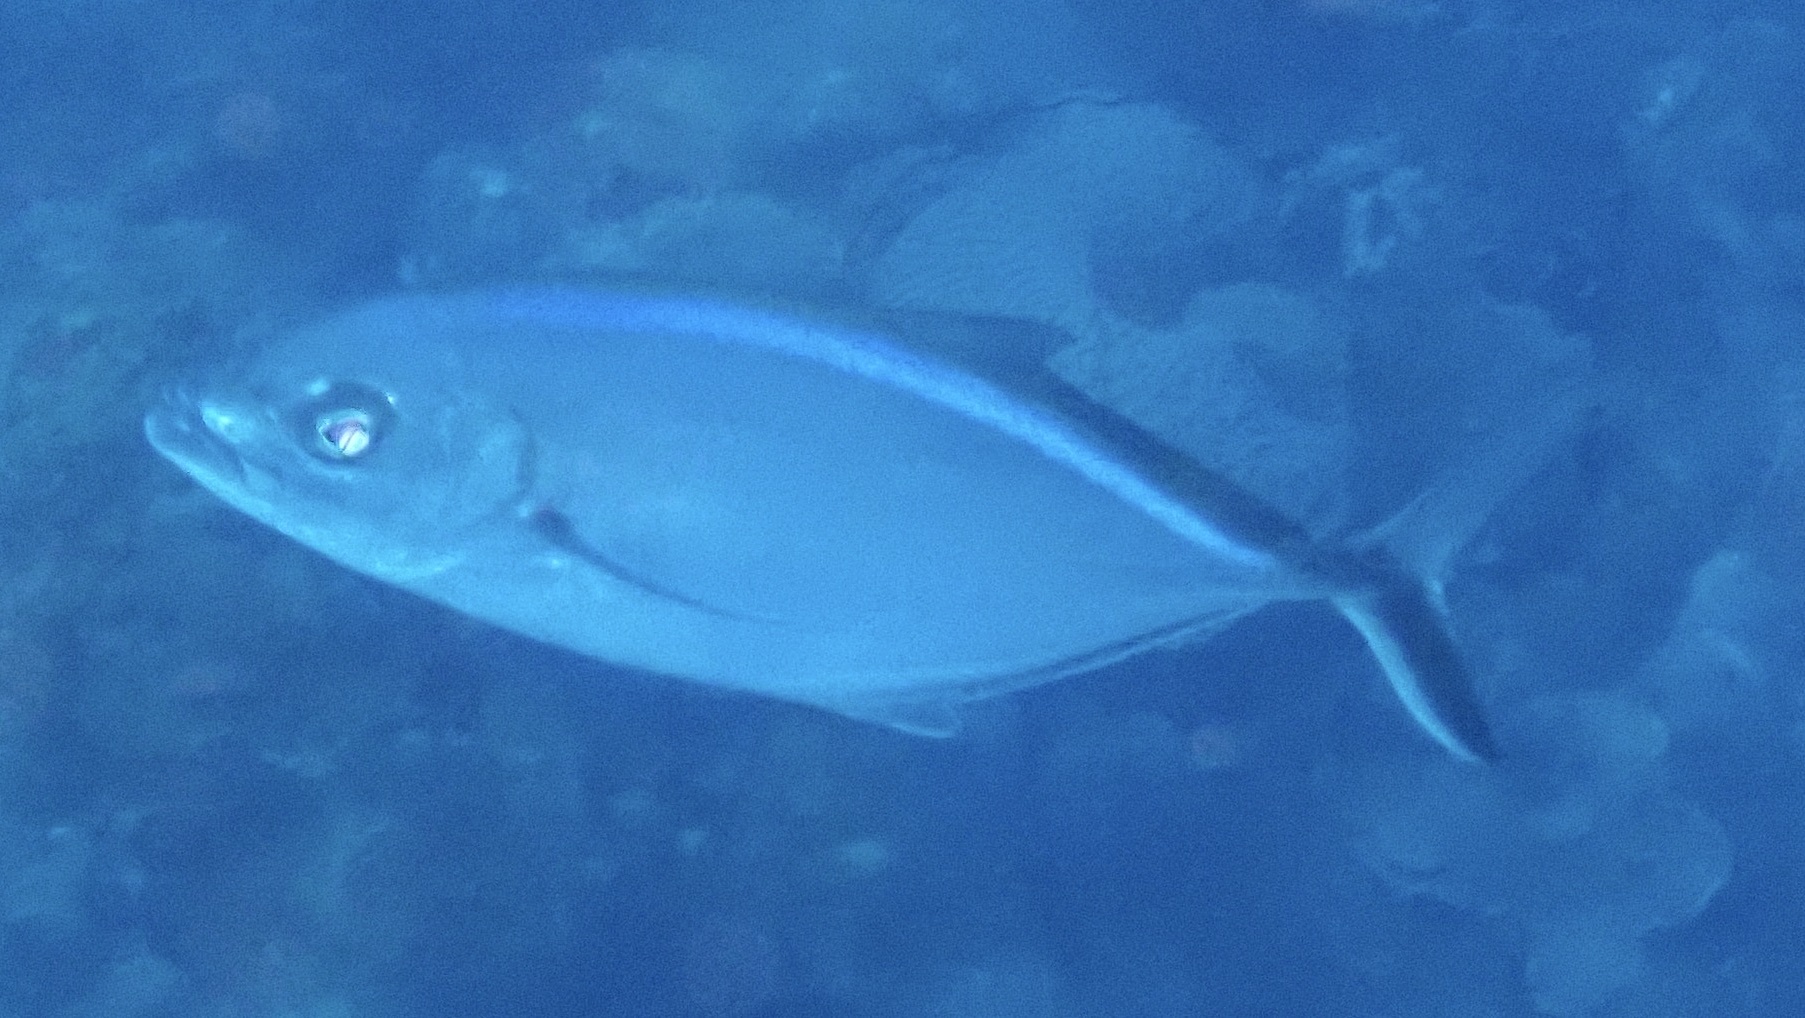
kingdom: Animalia
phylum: Chordata
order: Perciformes
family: Carangidae
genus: Caranx
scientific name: Caranx ruber
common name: Bar jack
